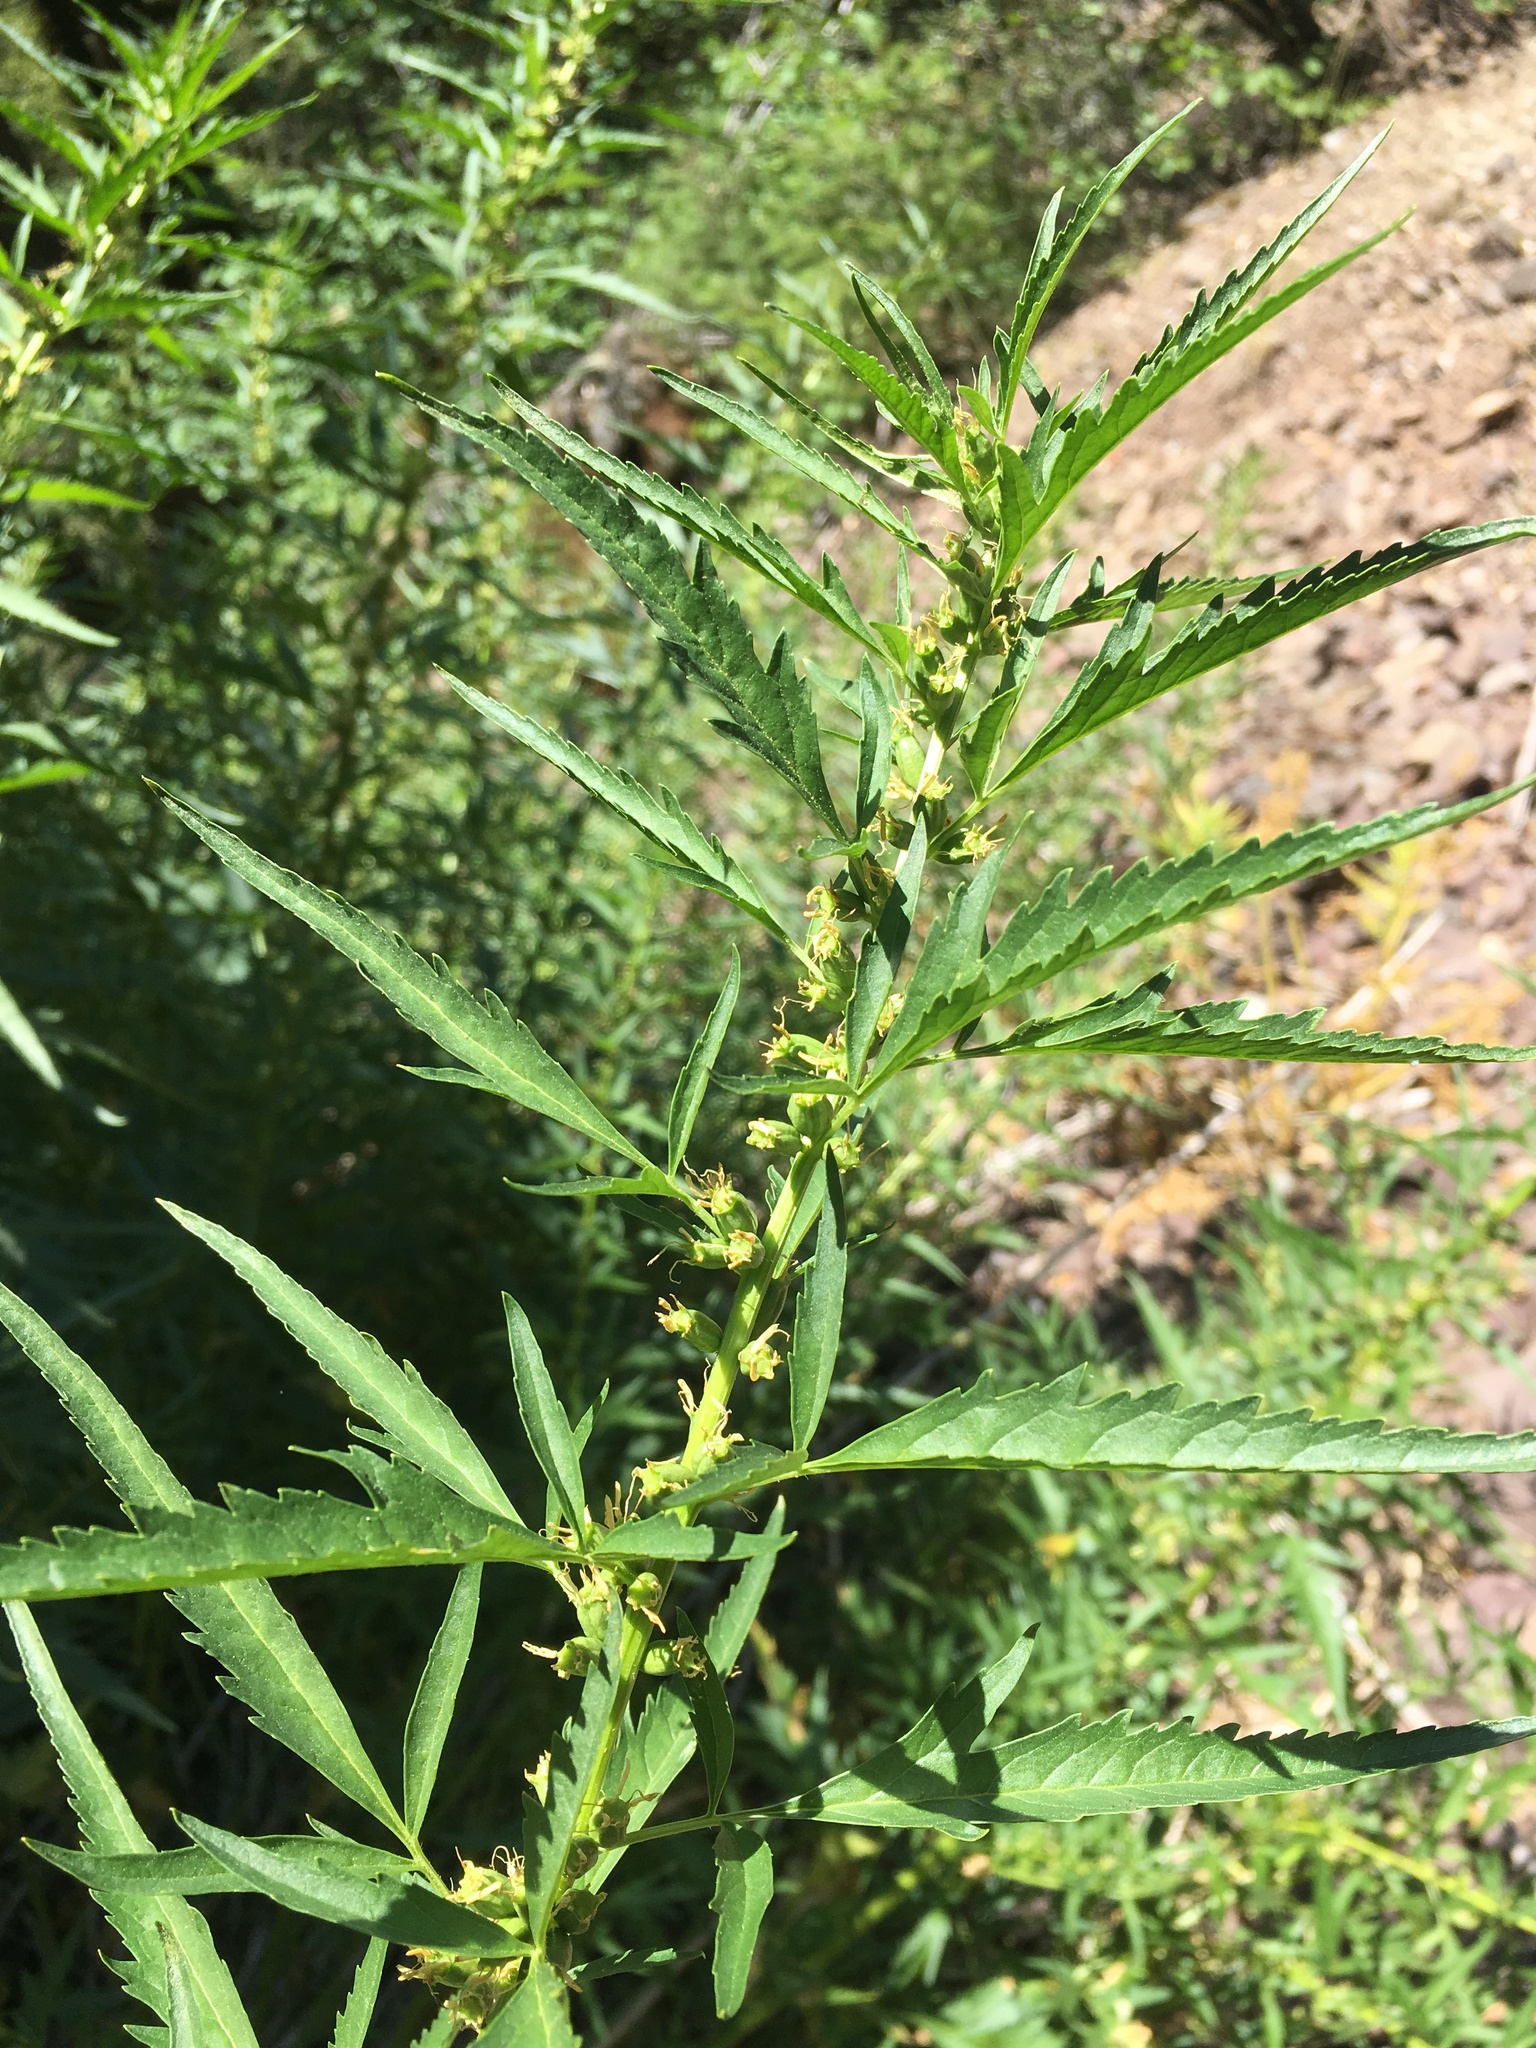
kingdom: Plantae
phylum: Tracheophyta
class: Magnoliopsida
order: Cucurbitales
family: Datiscaceae
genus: Datisca
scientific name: Datisca glomerata
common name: Durango-root
